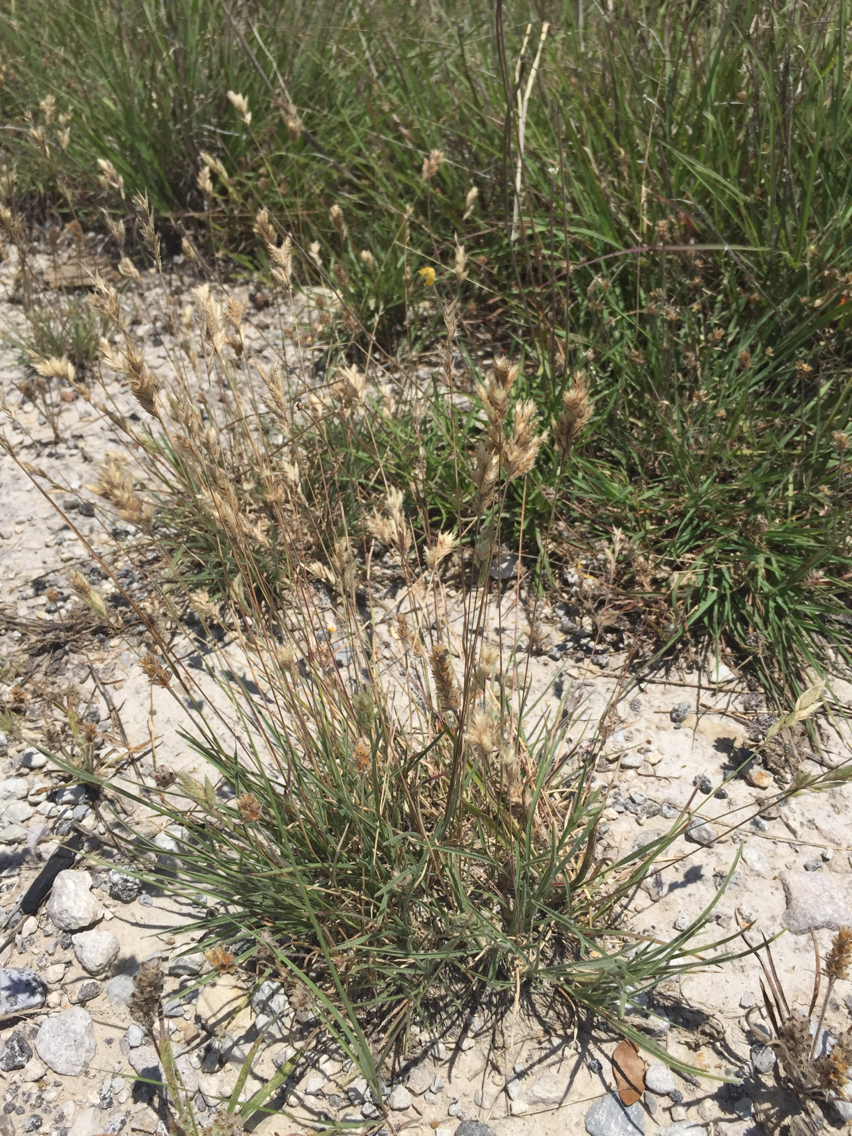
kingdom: Plantae
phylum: Tracheophyta
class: Liliopsida
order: Poales
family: Poaceae
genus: Erioneuron
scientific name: Erioneuron pilosum
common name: Hairy woolly grass
